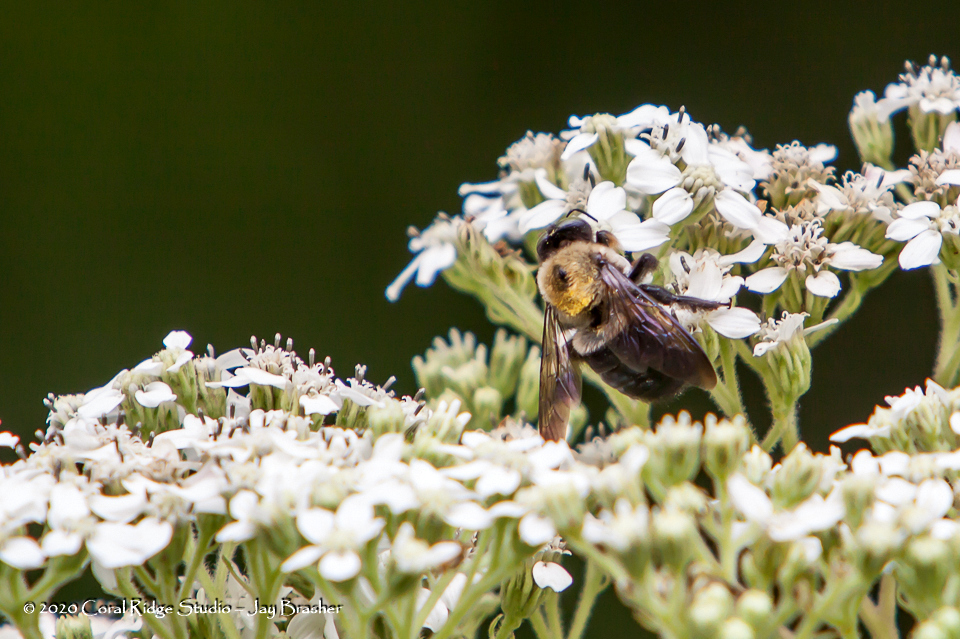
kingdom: Plantae
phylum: Tracheophyta
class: Magnoliopsida
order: Asterales
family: Asteraceae
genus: Verbesina
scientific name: Verbesina virginica
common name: Frostweed
